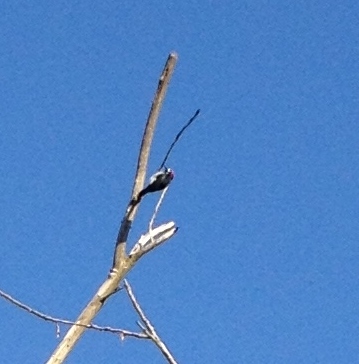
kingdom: Animalia
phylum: Chordata
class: Aves
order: Piciformes
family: Picidae
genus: Melanerpes
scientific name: Melanerpes formicivorus
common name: Acorn woodpecker
